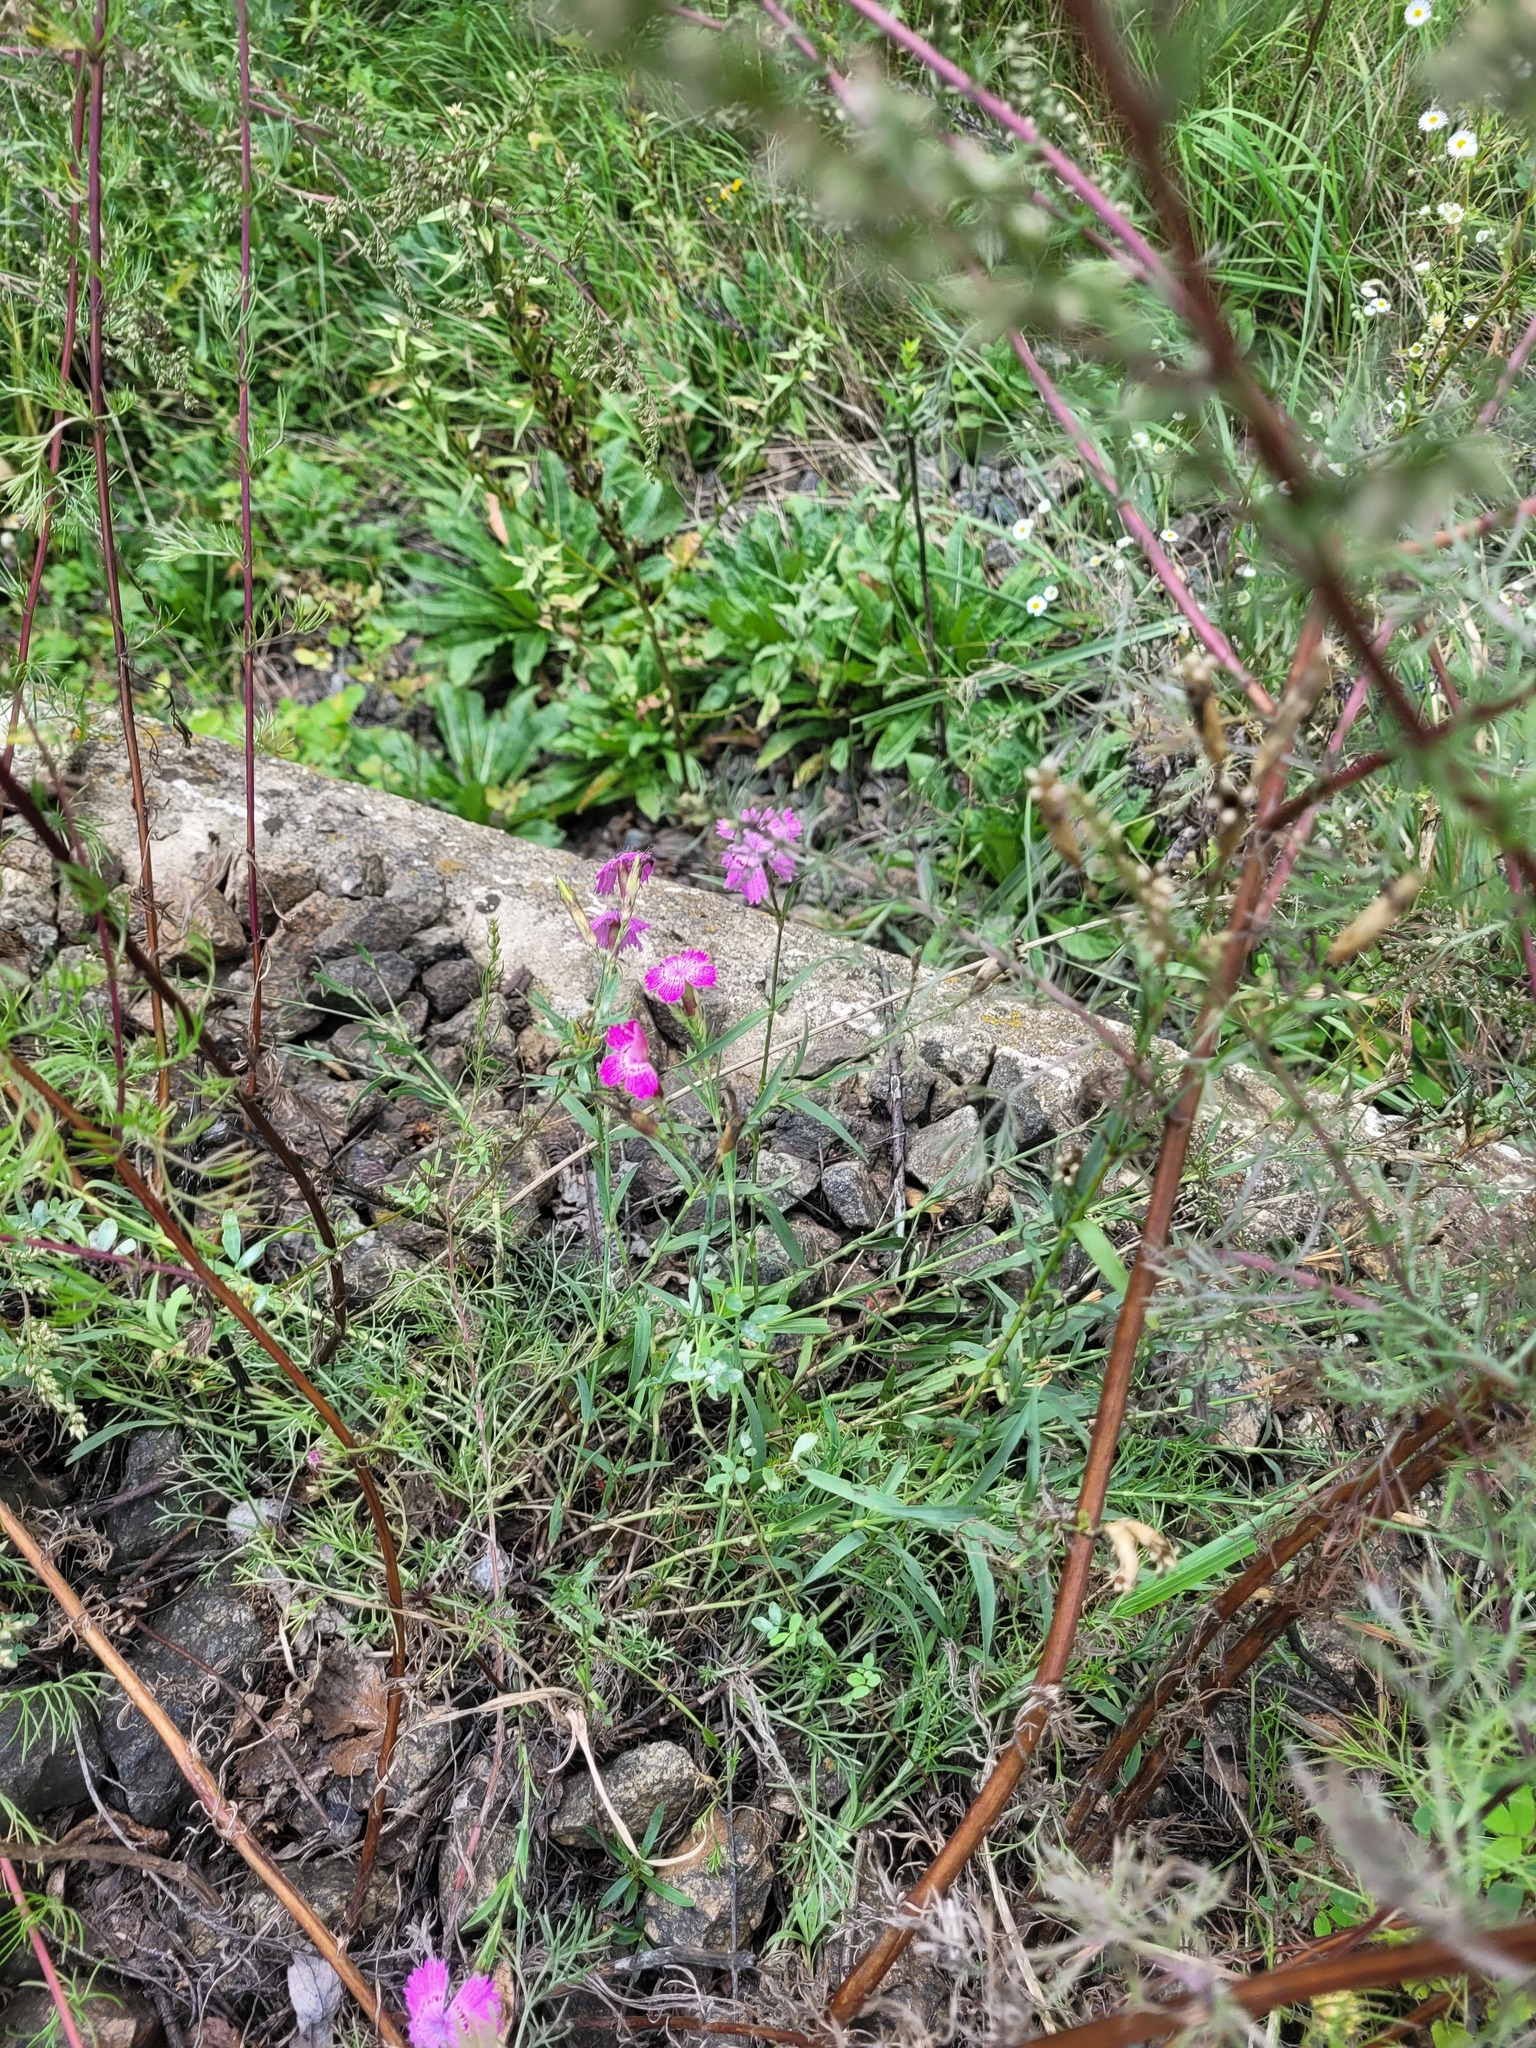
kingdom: Plantae
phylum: Tracheophyta
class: Magnoliopsida
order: Caryophyllales
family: Caryophyllaceae
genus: Dianthus
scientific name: Dianthus chinensis
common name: Rainbow pink
